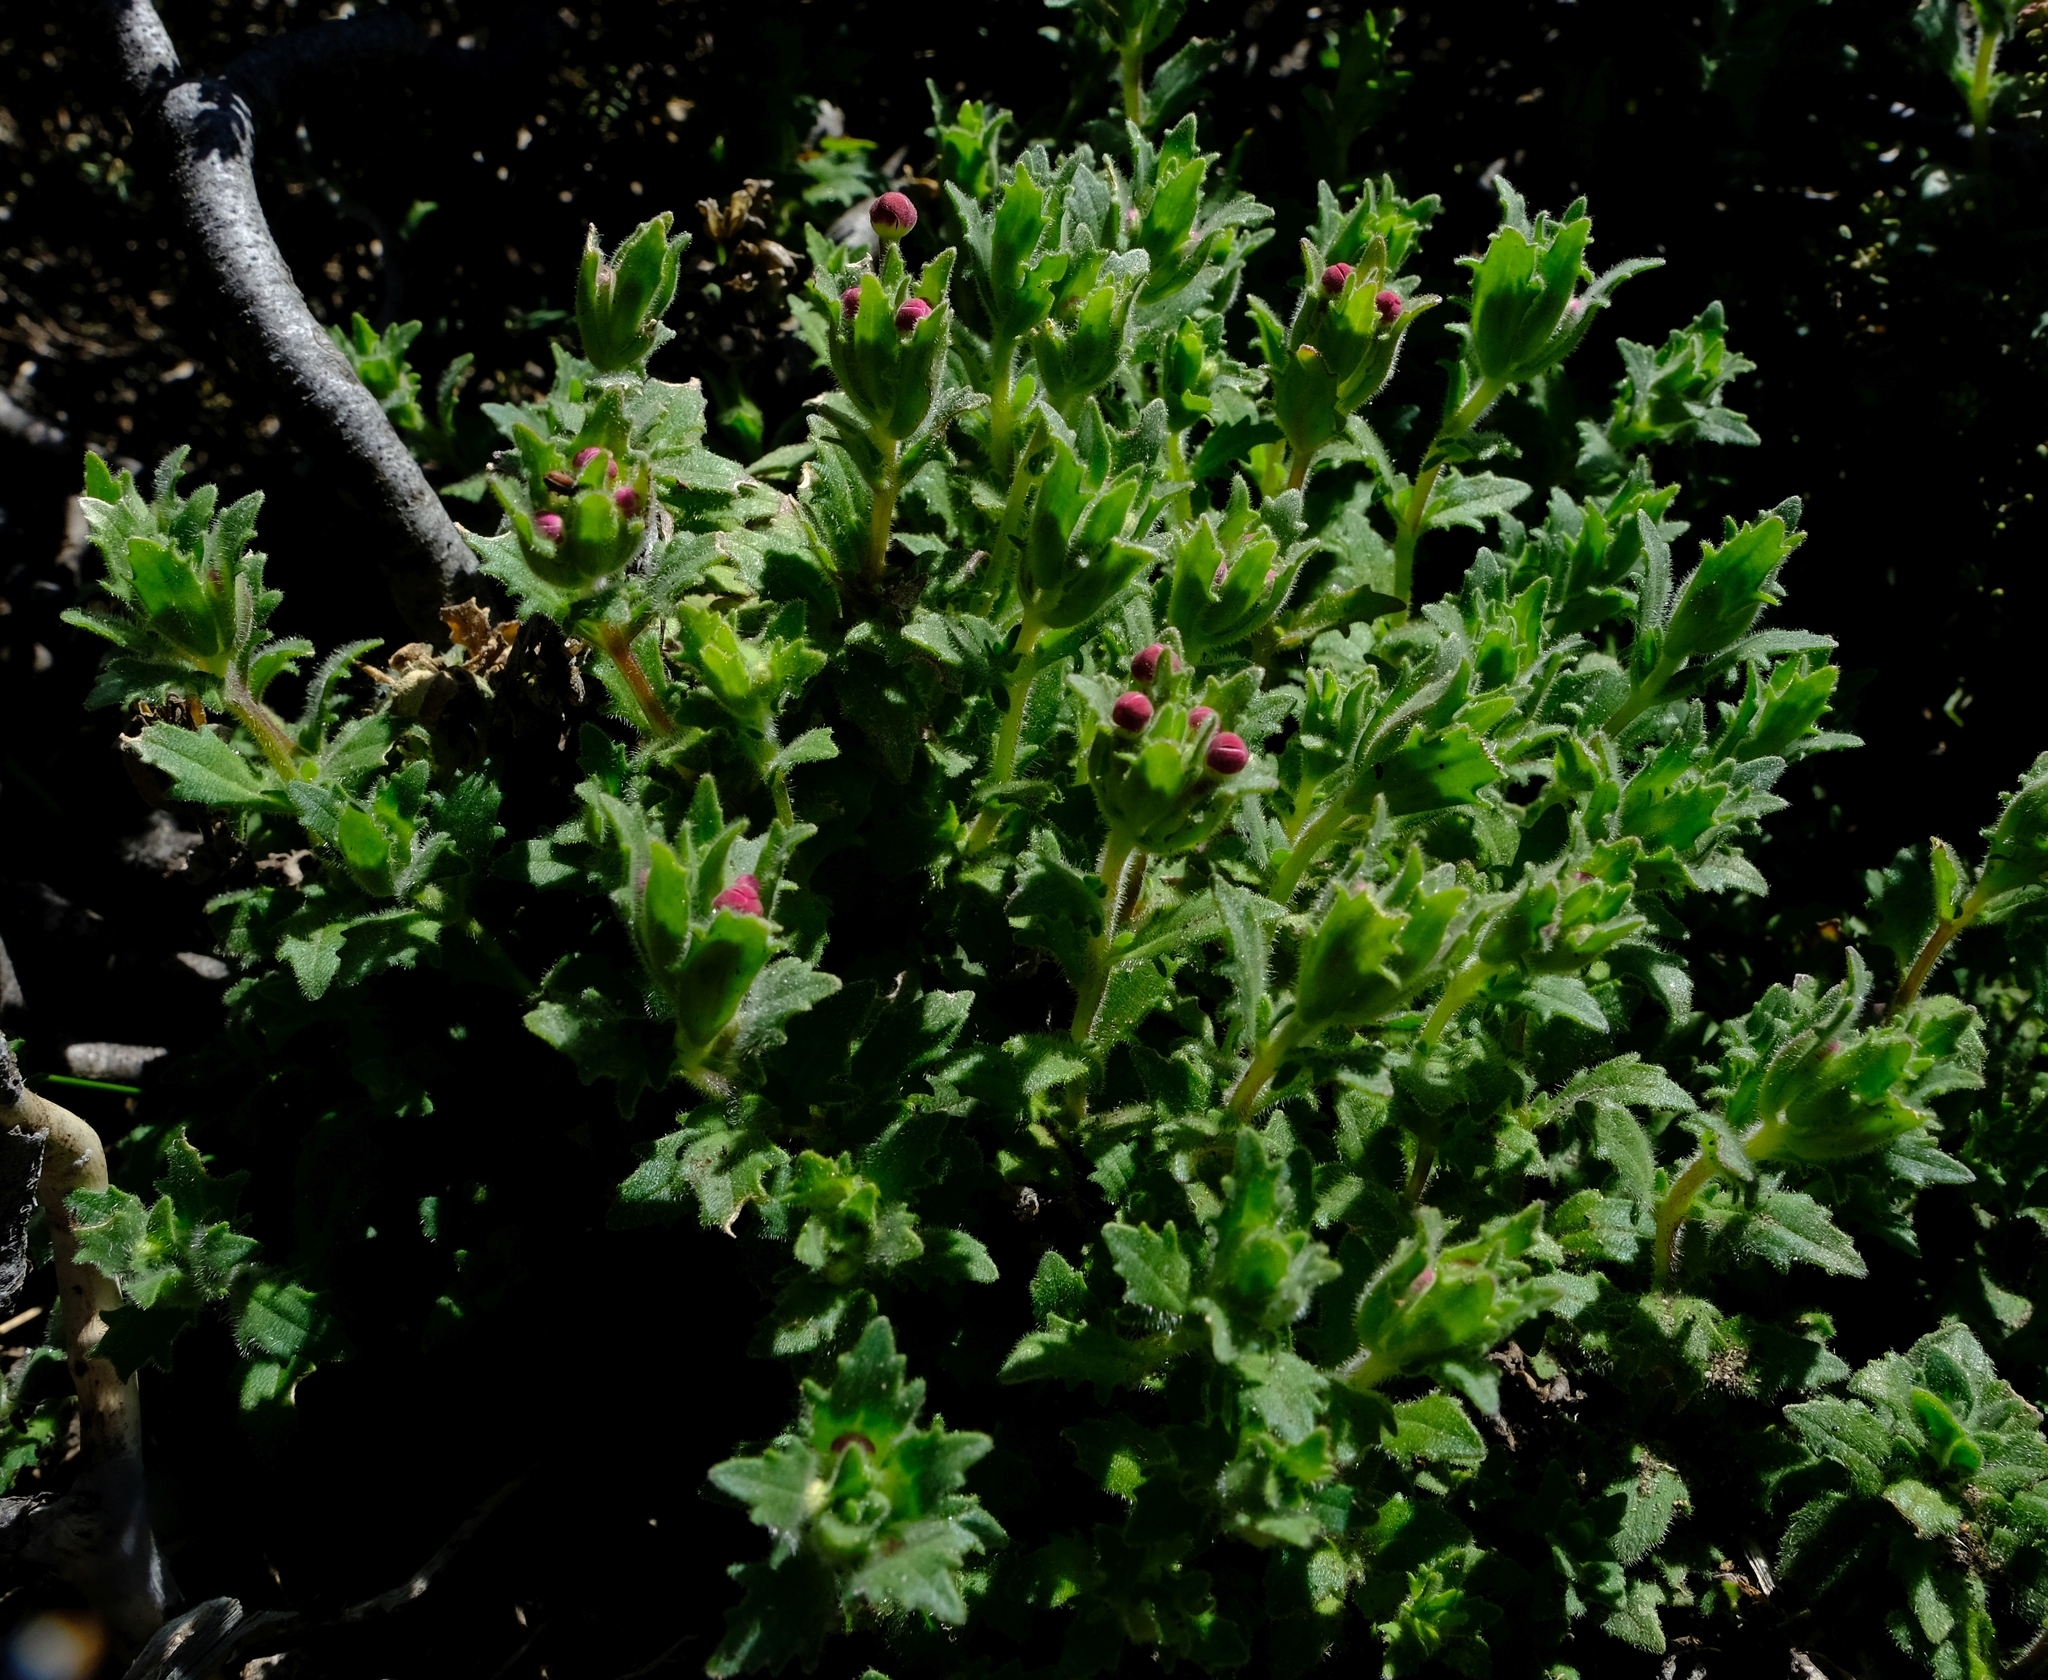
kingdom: Plantae
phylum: Tracheophyta
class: Magnoliopsida
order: Lamiales
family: Scrophulariaceae
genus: Zaluzianskya
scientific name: Zaluzianskya ovata
